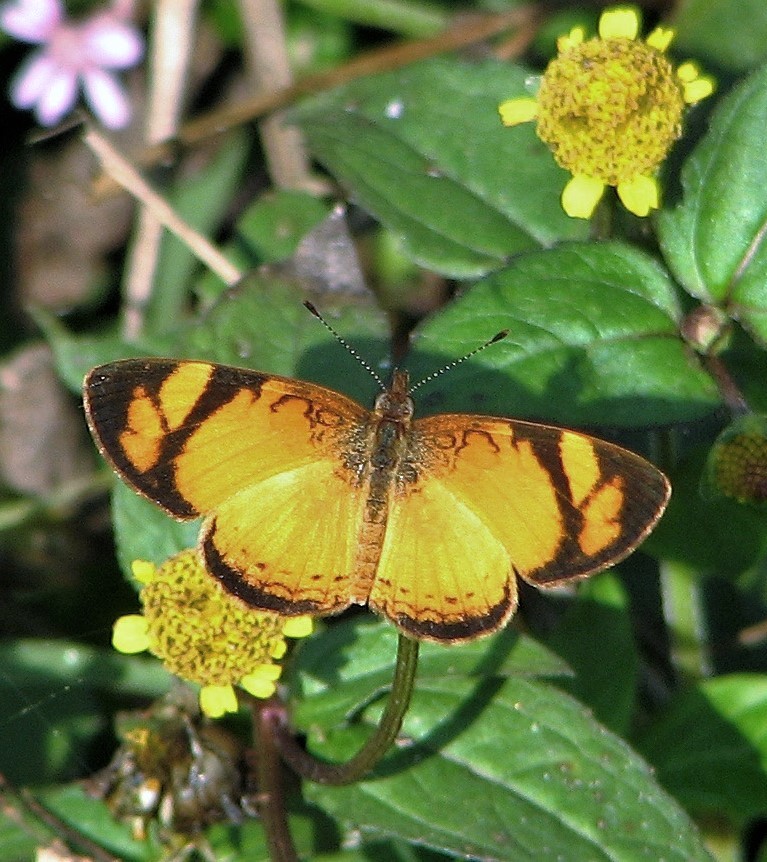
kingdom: Animalia
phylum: Arthropoda
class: Insecta
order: Lepidoptera
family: Nymphalidae
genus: Tegosa
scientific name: Tegosa claudina
